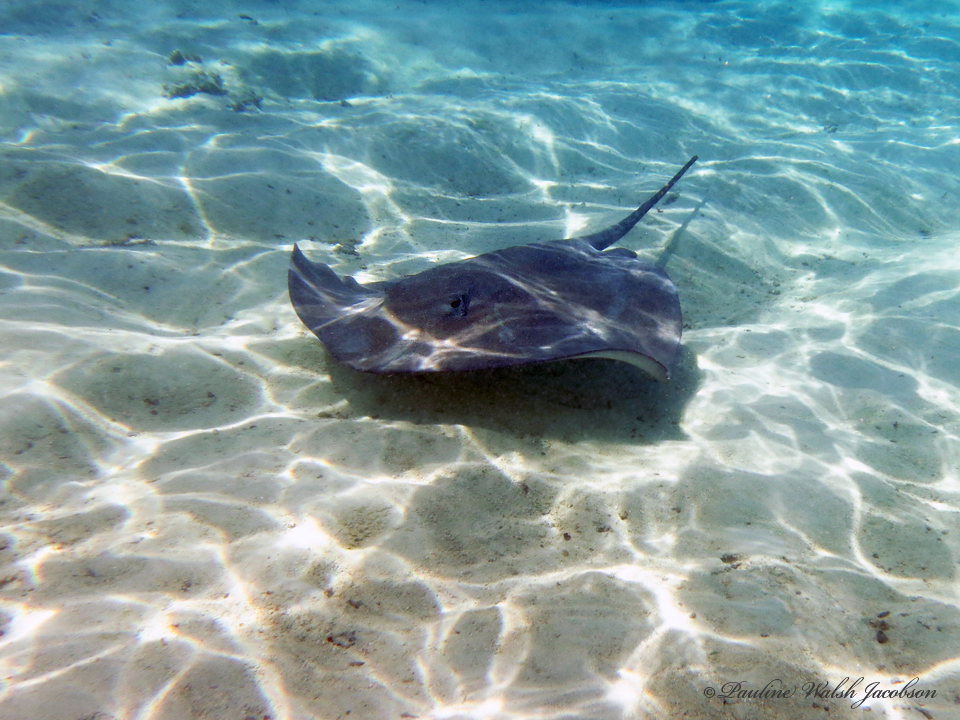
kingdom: Animalia
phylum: Chordata
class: Elasmobranchii
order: Myliobatiformes
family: Dasyatidae
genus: Pateobatis
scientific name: Pateobatis fai
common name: Pink whipray
